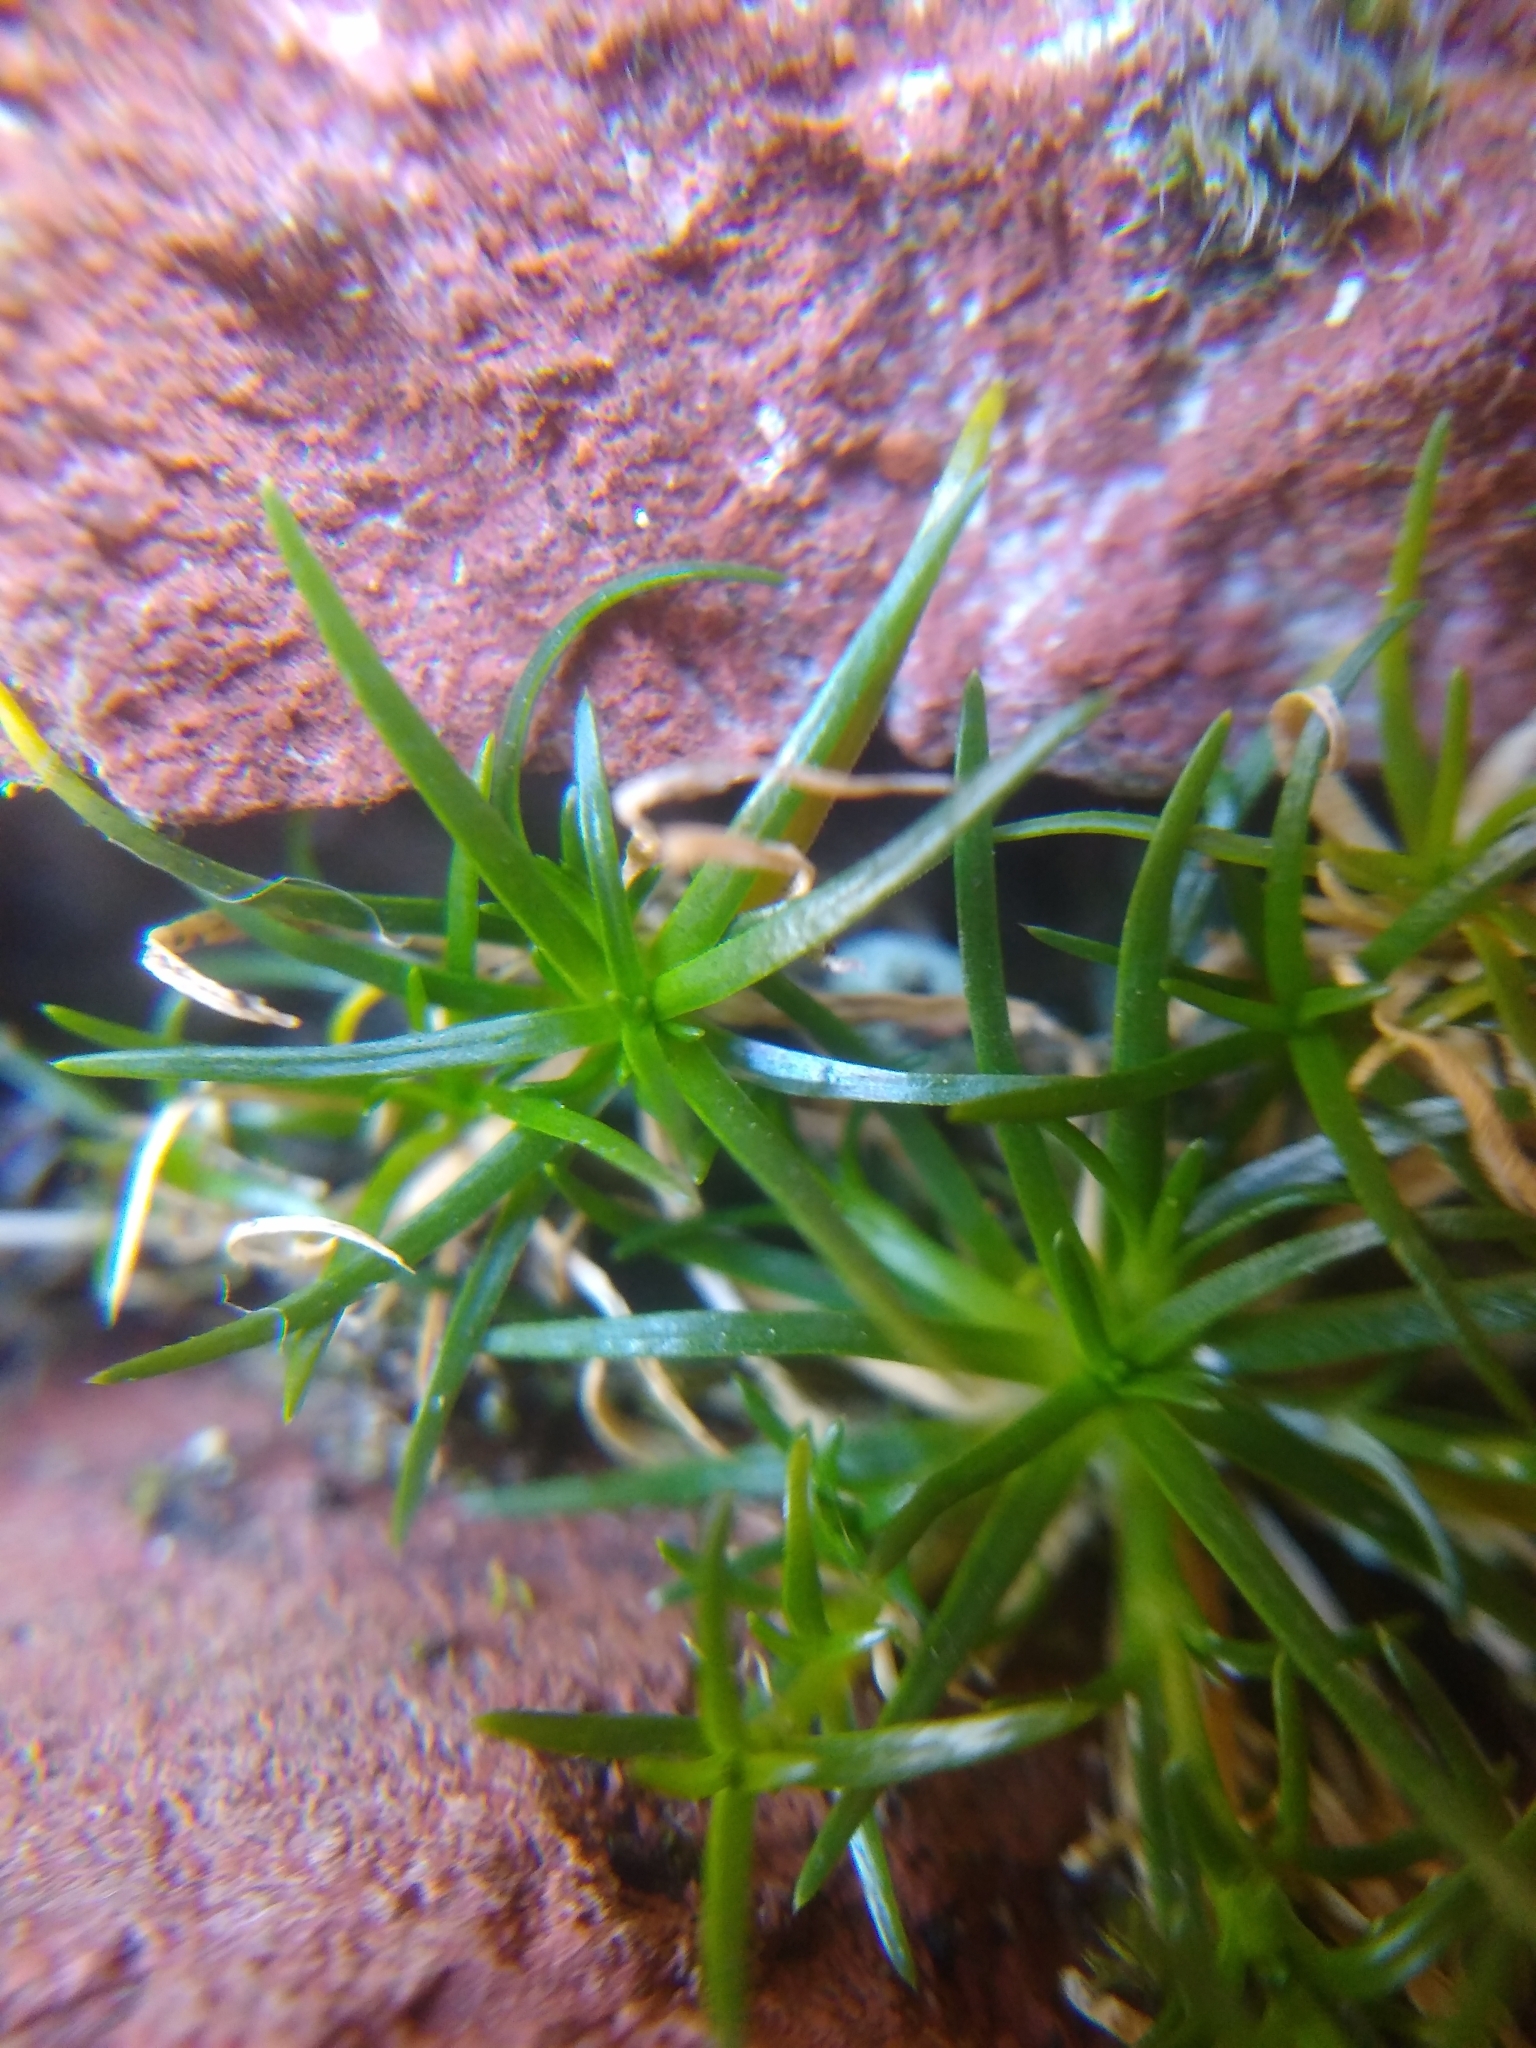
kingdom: Plantae
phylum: Tracheophyta
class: Magnoliopsida
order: Caryophyllales
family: Caryophyllaceae
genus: Sagina
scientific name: Sagina procumbens
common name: Procumbent pearlwort
